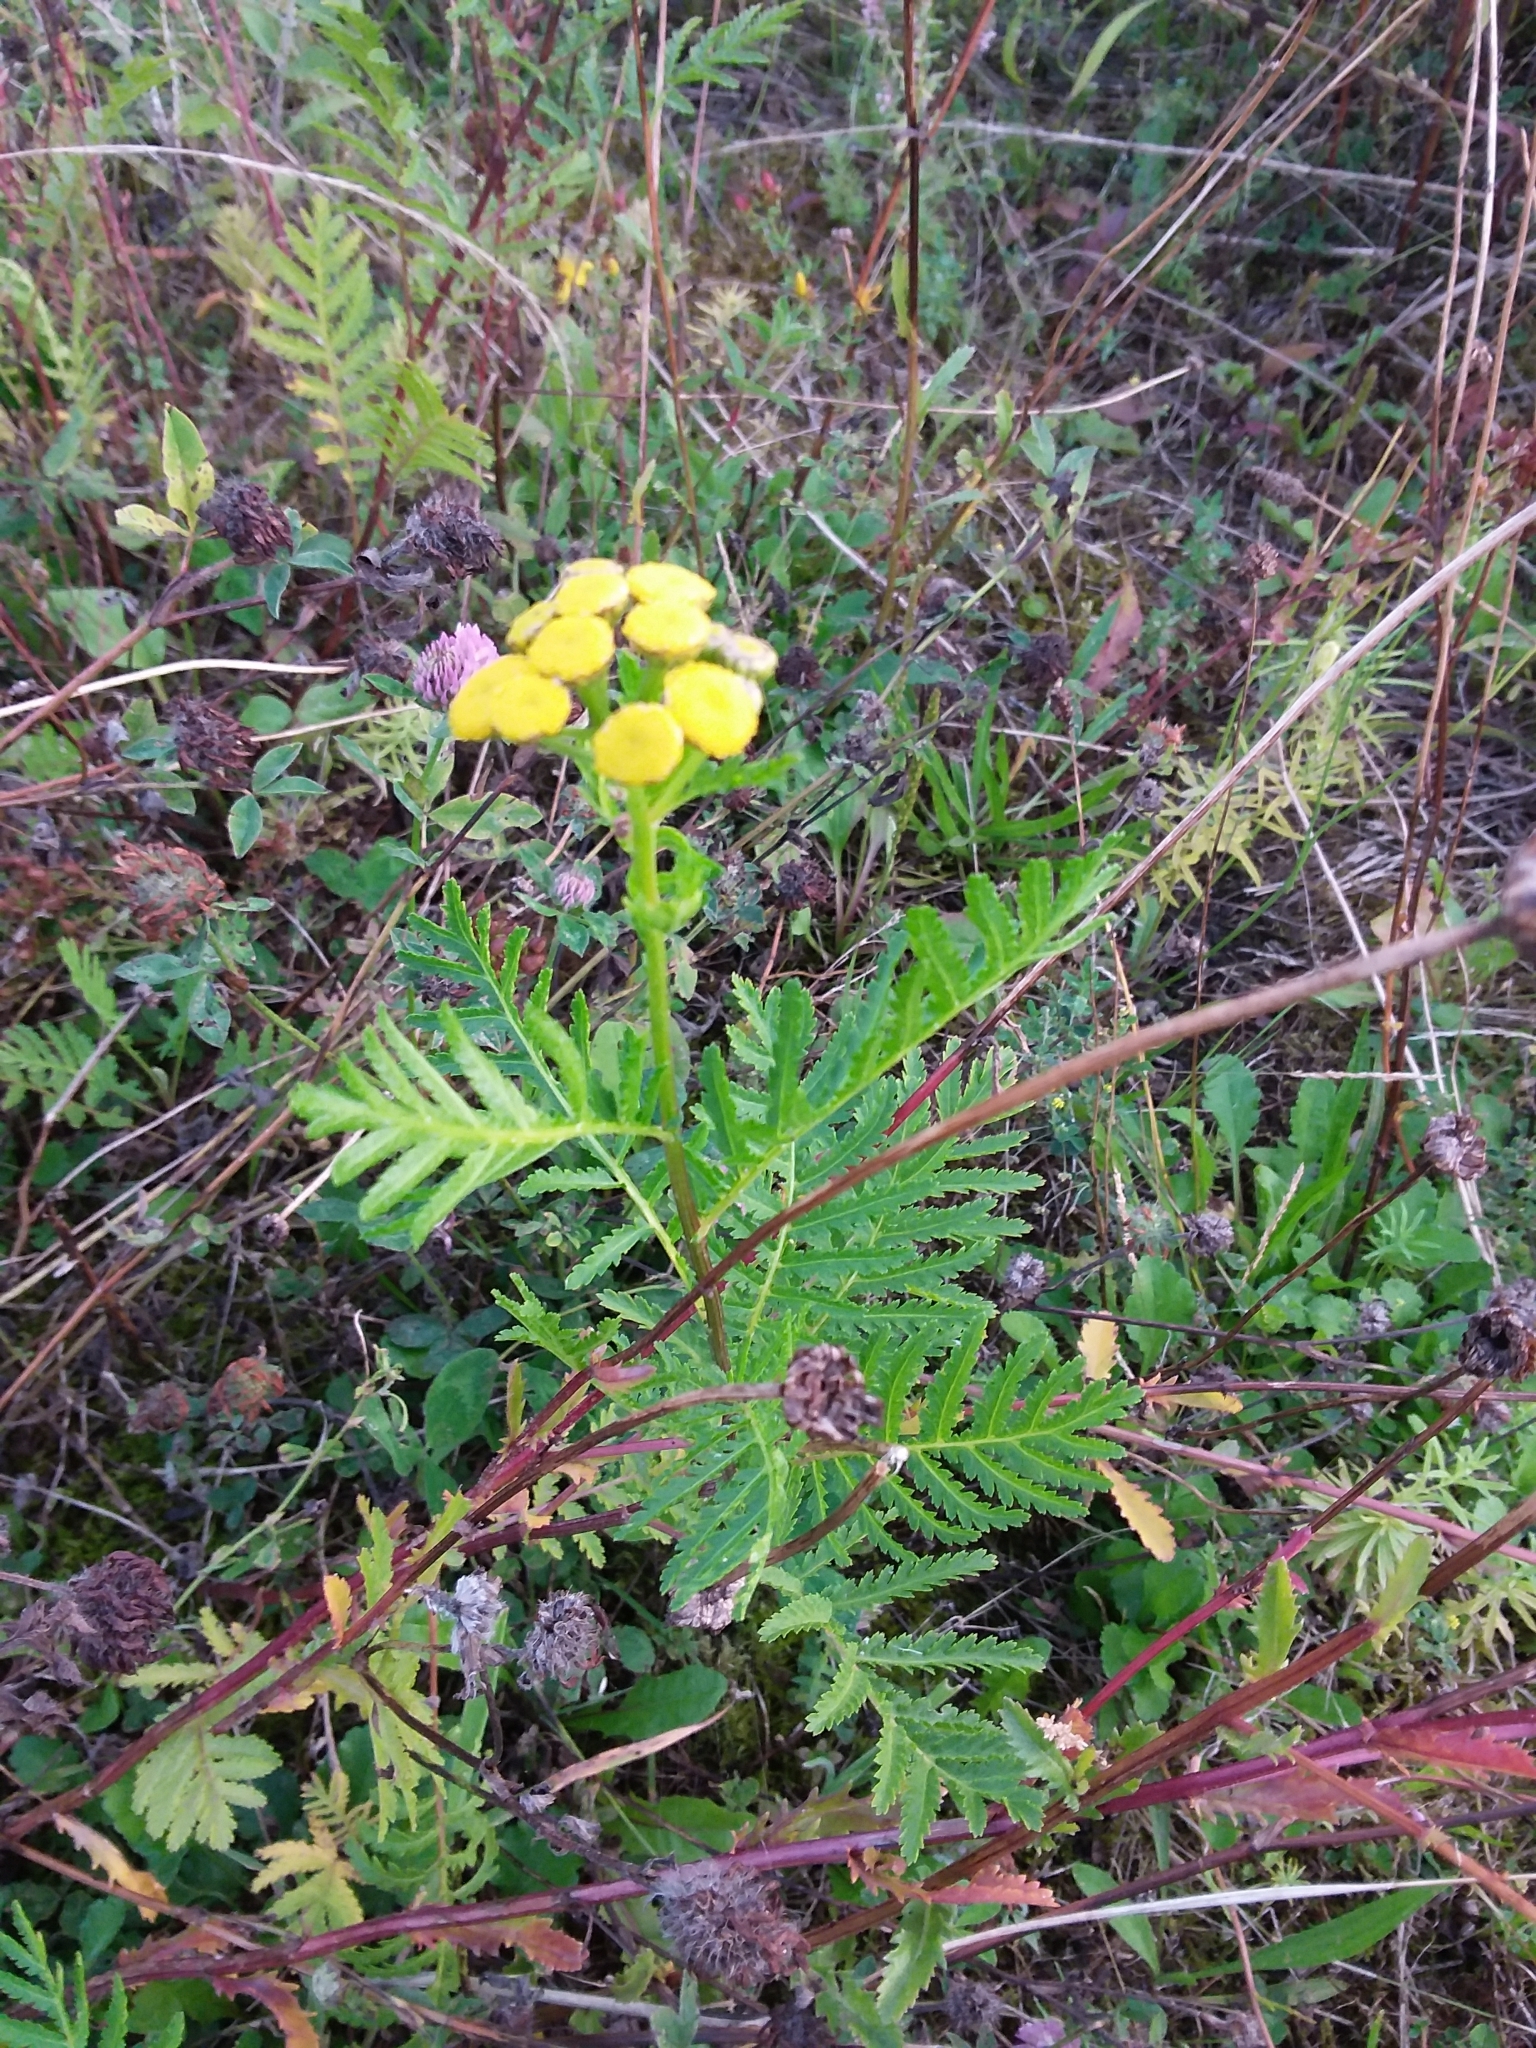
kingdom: Plantae
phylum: Tracheophyta
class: Magnoliopsida
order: Asterales
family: Asteraceae
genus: Tanacetum
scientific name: Tanacetum vulgare
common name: Common tansy
